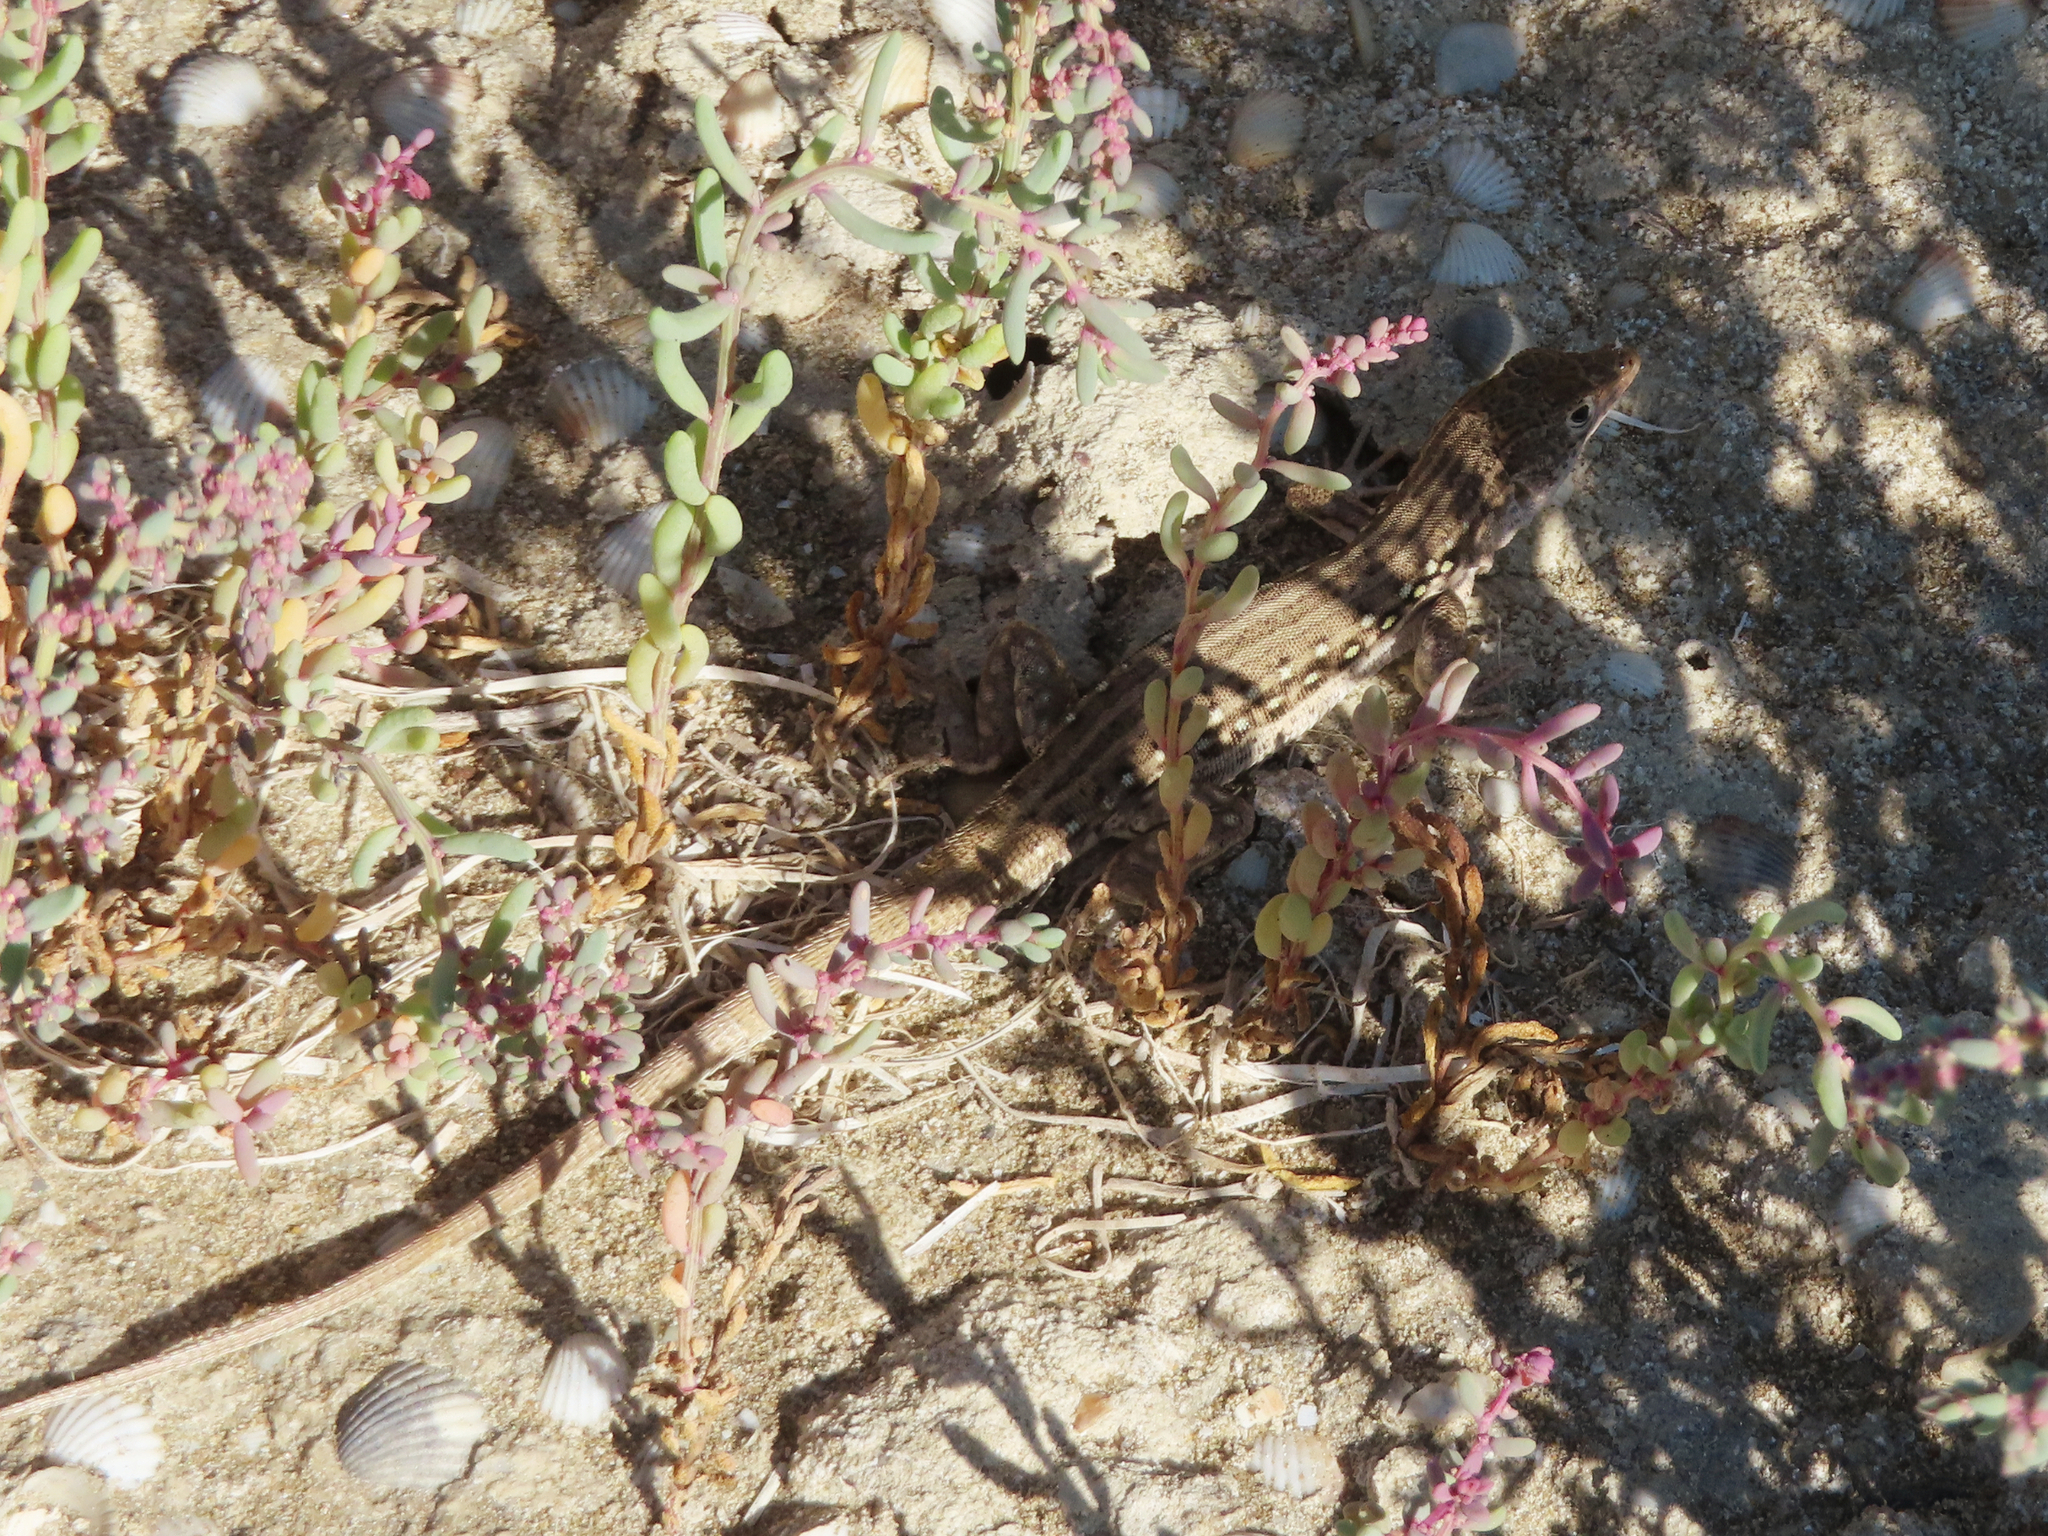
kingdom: Animalia
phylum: Chordata
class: Squamata
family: Lacertidae
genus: Eremias
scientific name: Eremias velox
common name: Central asian racerunner
